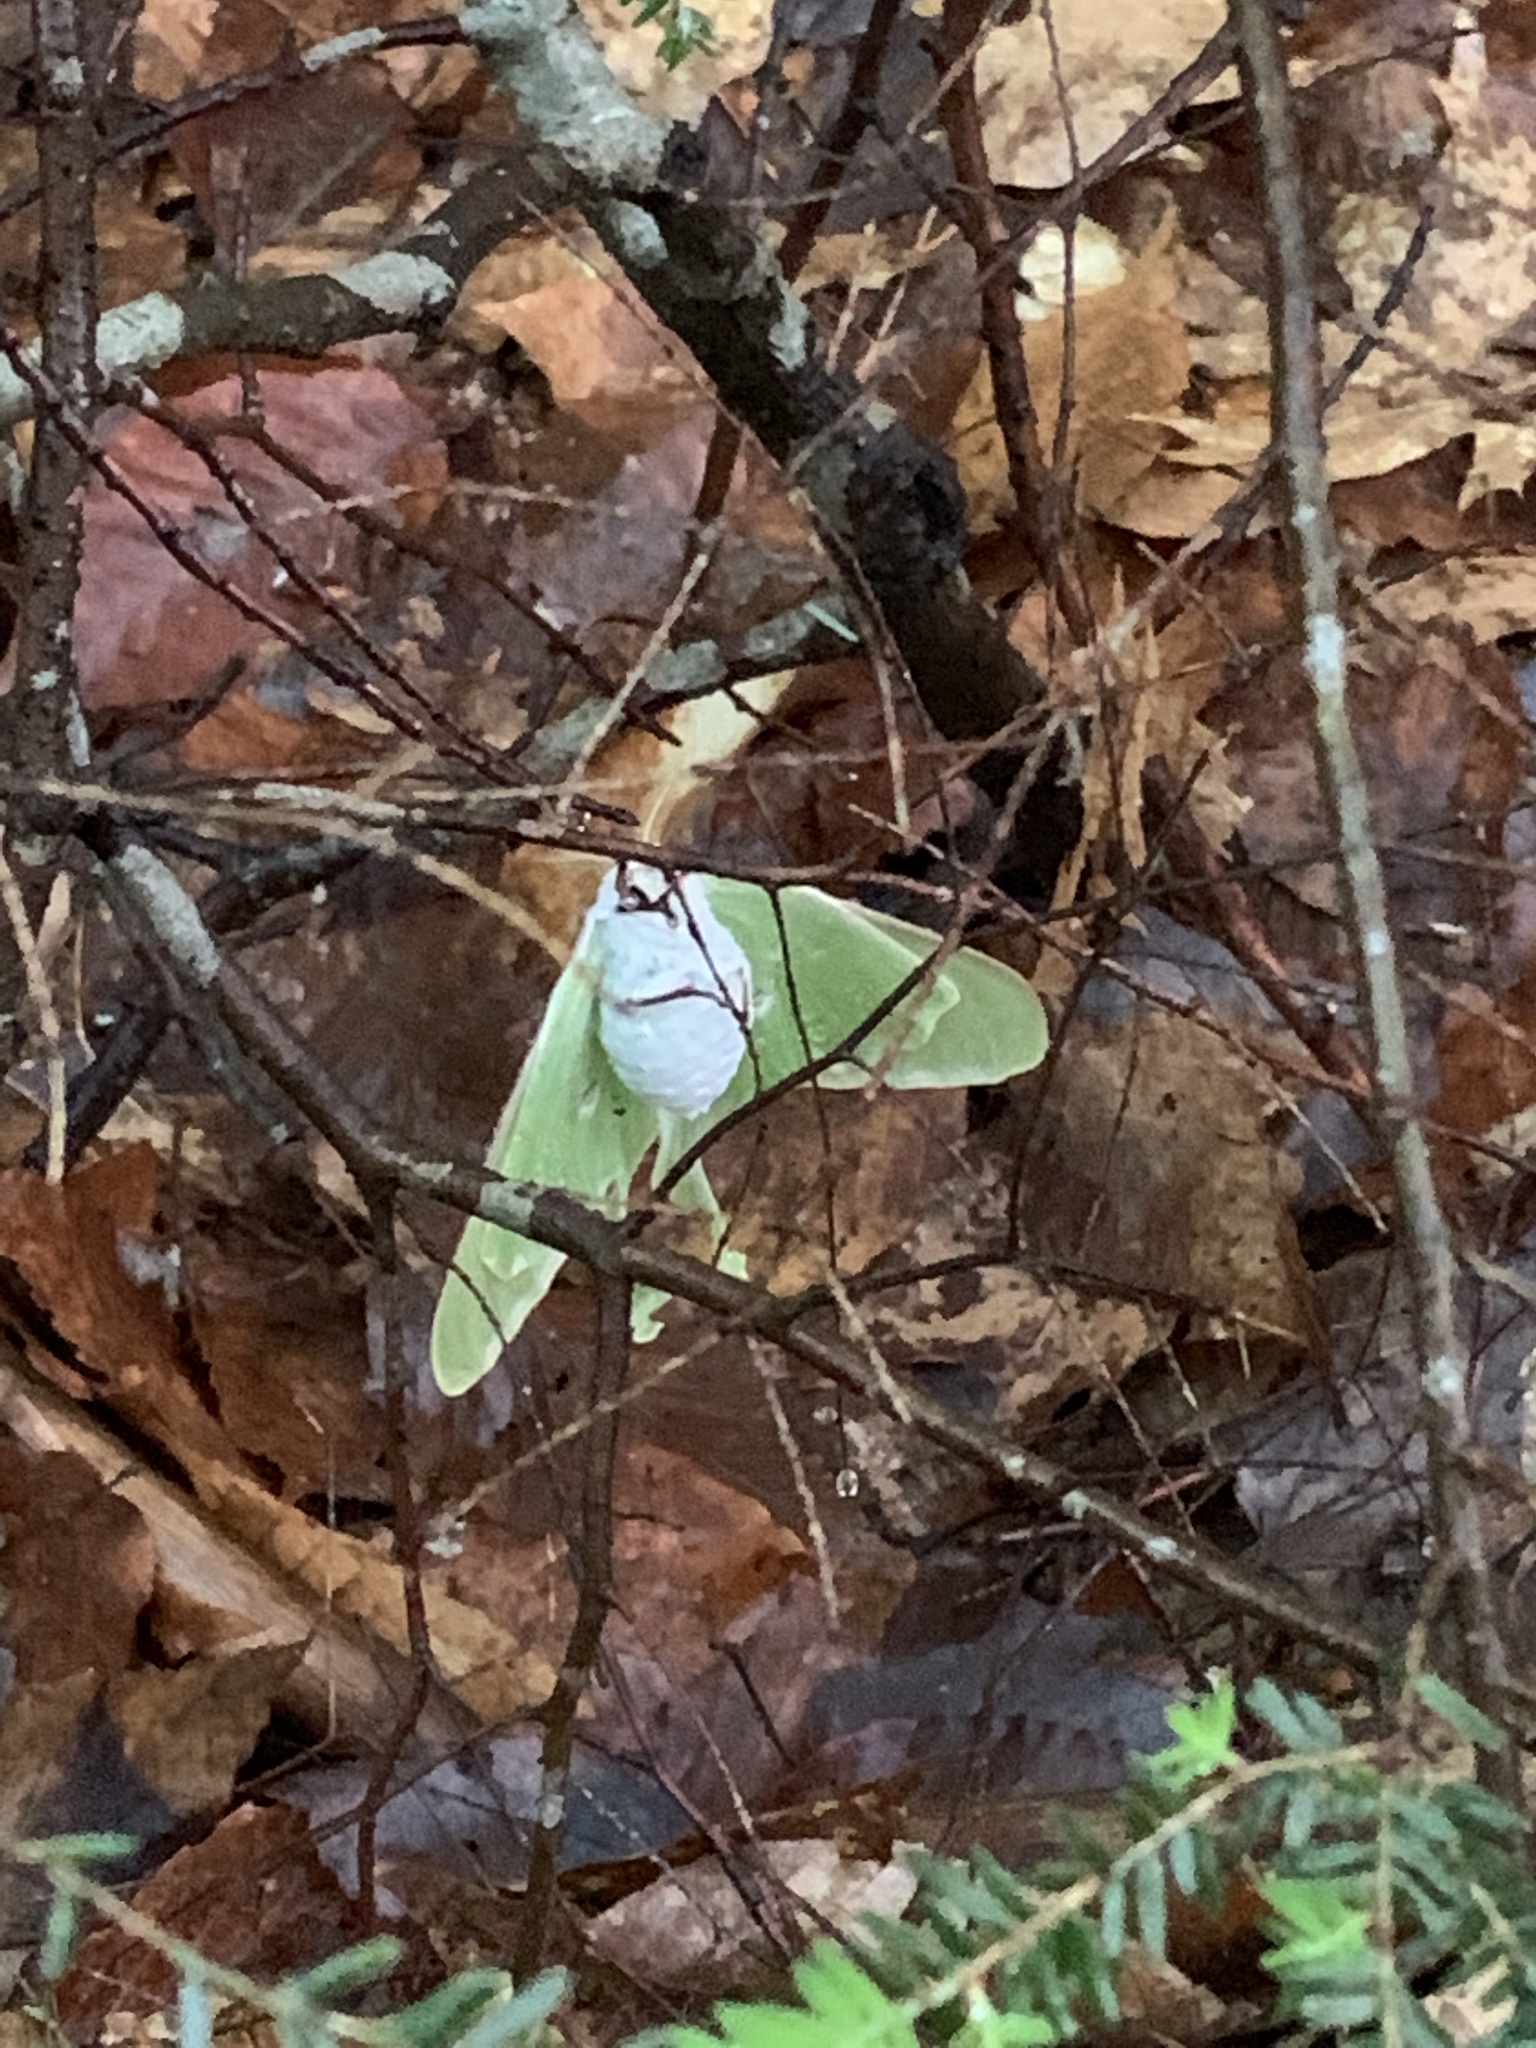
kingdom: Animalia
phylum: Arthropoda
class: Insecta
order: Lepidoptera
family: Saturniidae
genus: Actias
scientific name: Actias luna
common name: Luna moth
